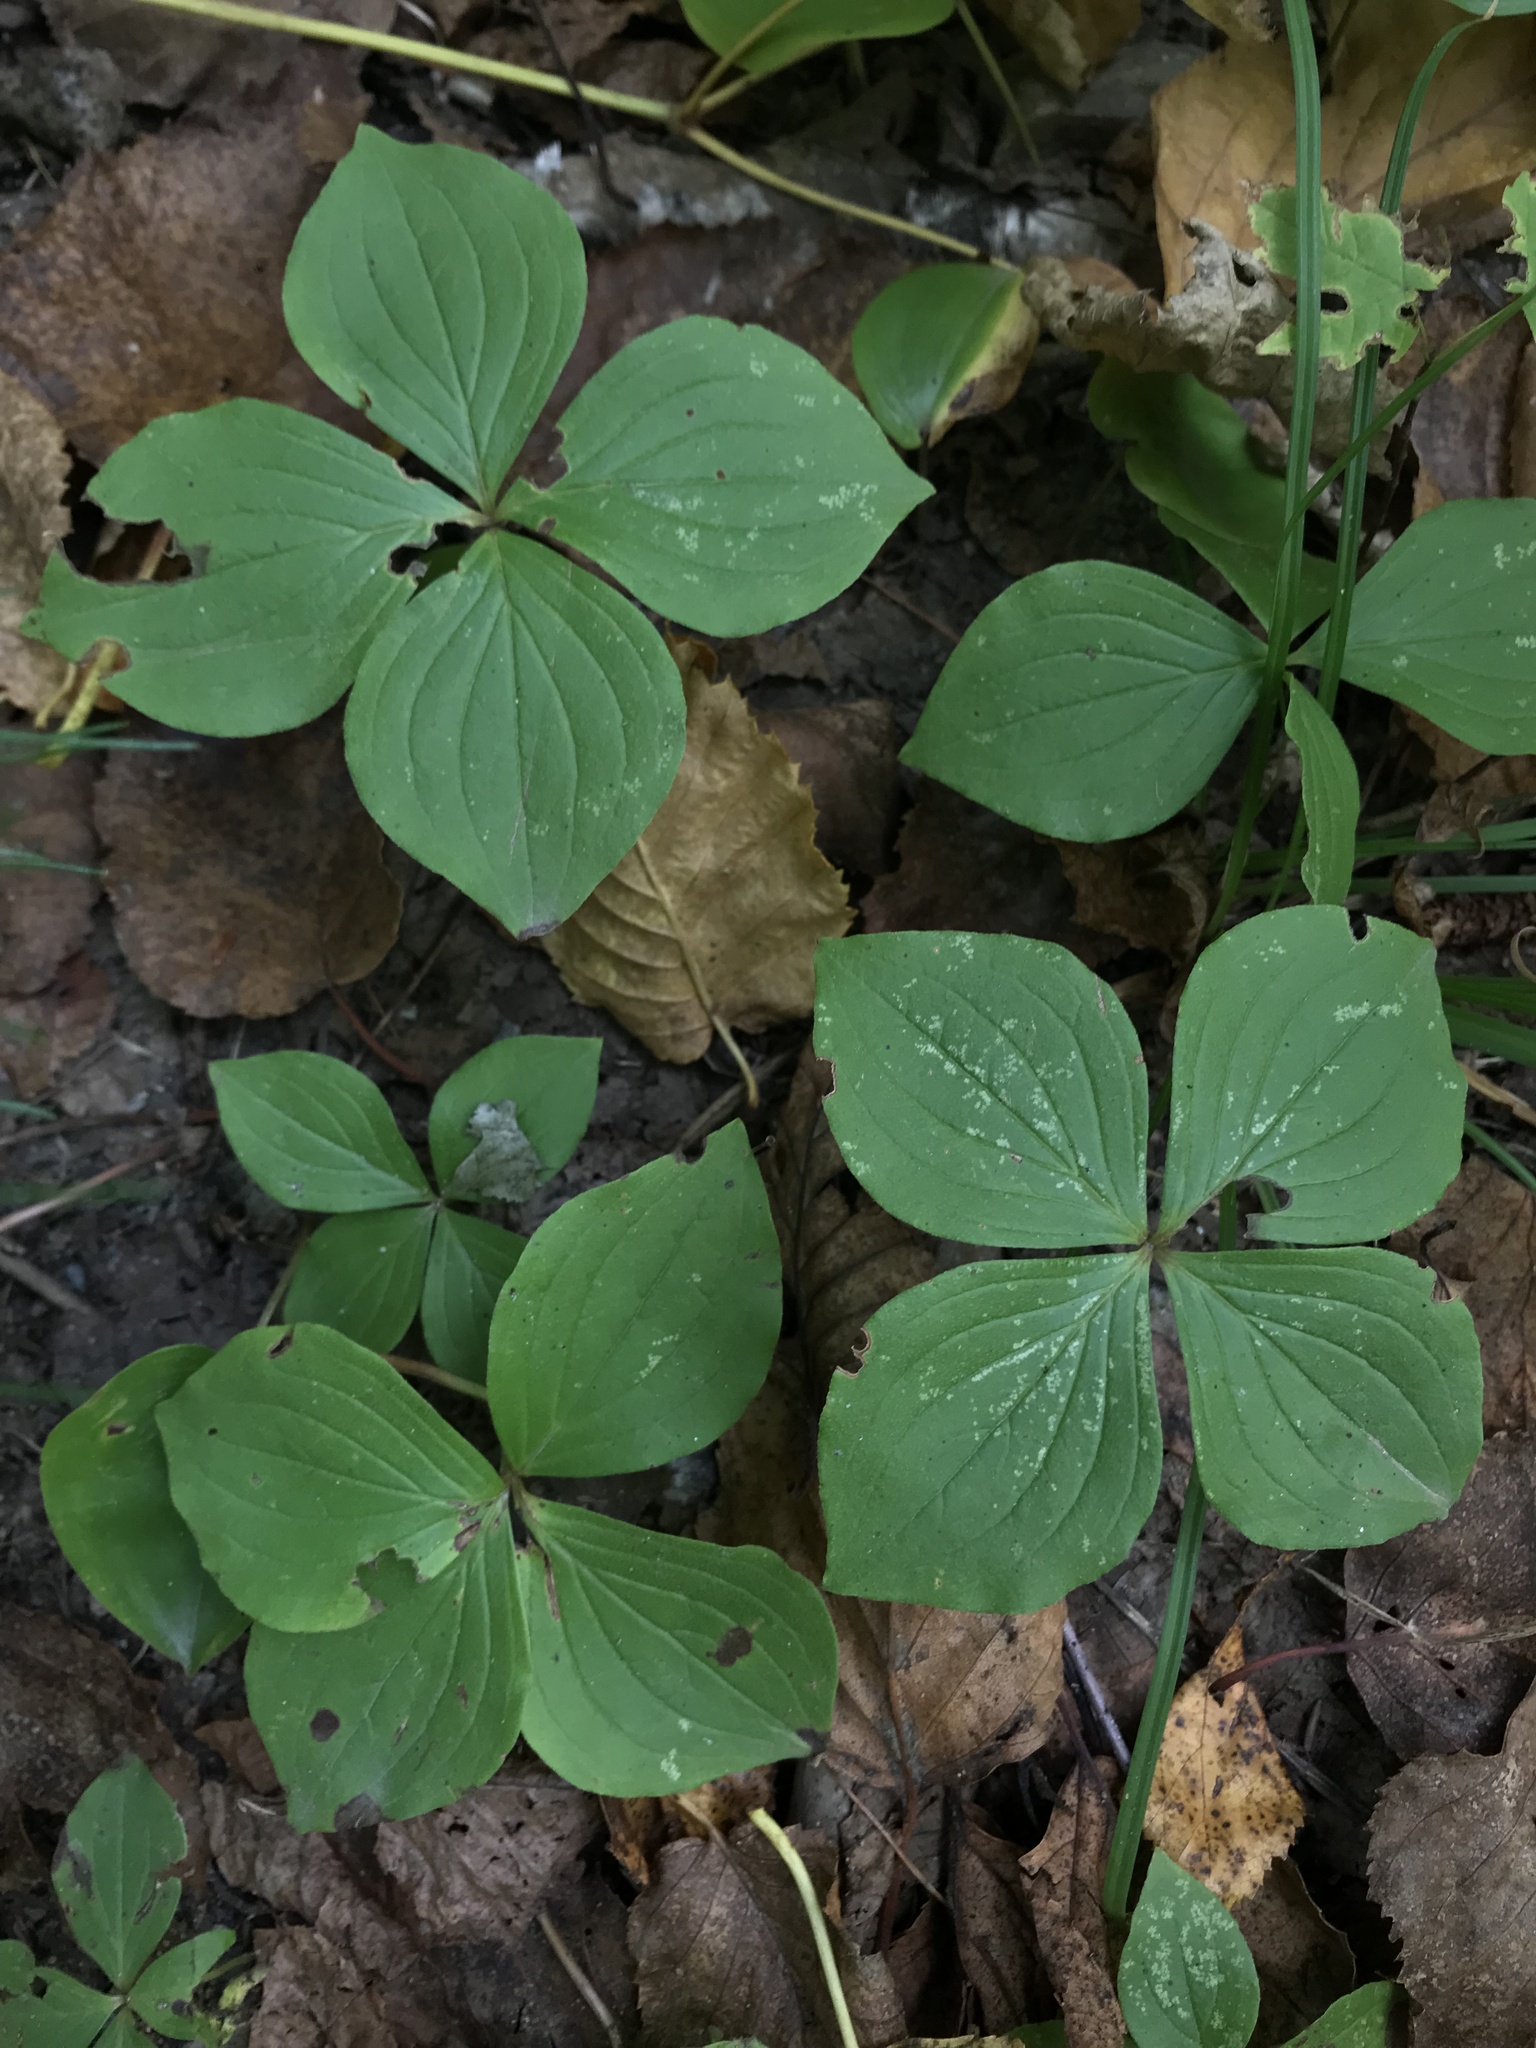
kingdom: Plantae
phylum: Tracheophyta
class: Magnoliopsida
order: Cornales
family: Cornaceae
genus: Cornus
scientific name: Cornus canadensis
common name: Creeping dogwood
